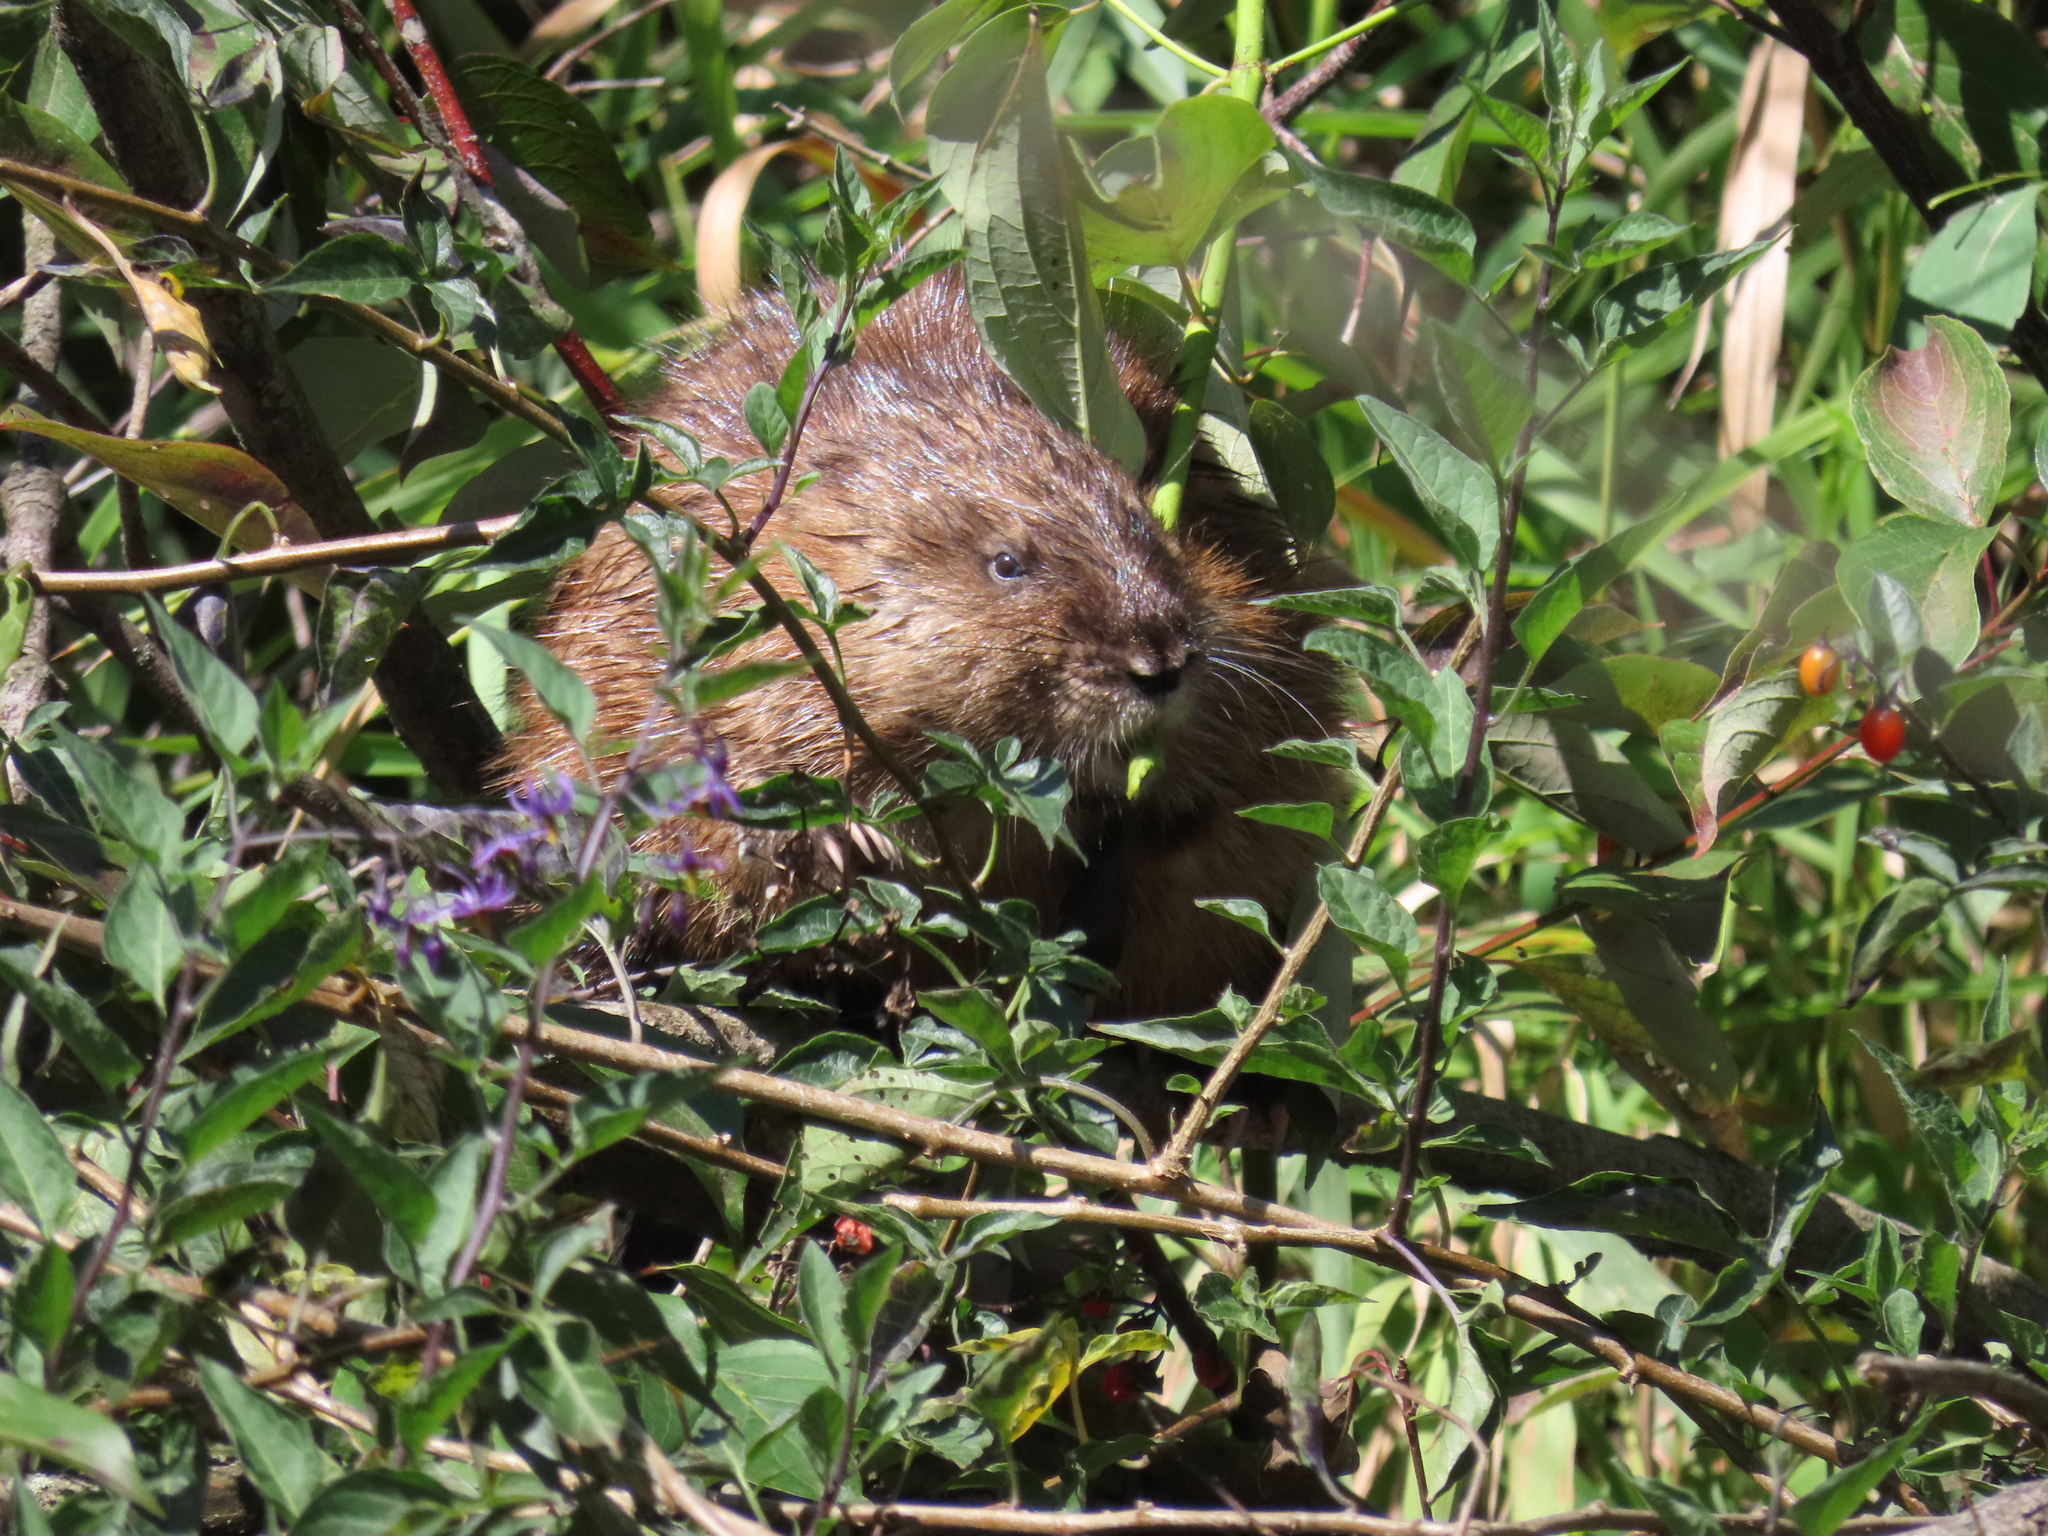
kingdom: Animalia
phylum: Chordata
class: Mammalia
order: Rodentia
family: Cricetidae
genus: Ondatra
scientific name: Ondatra zibethicus
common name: Muskrat
